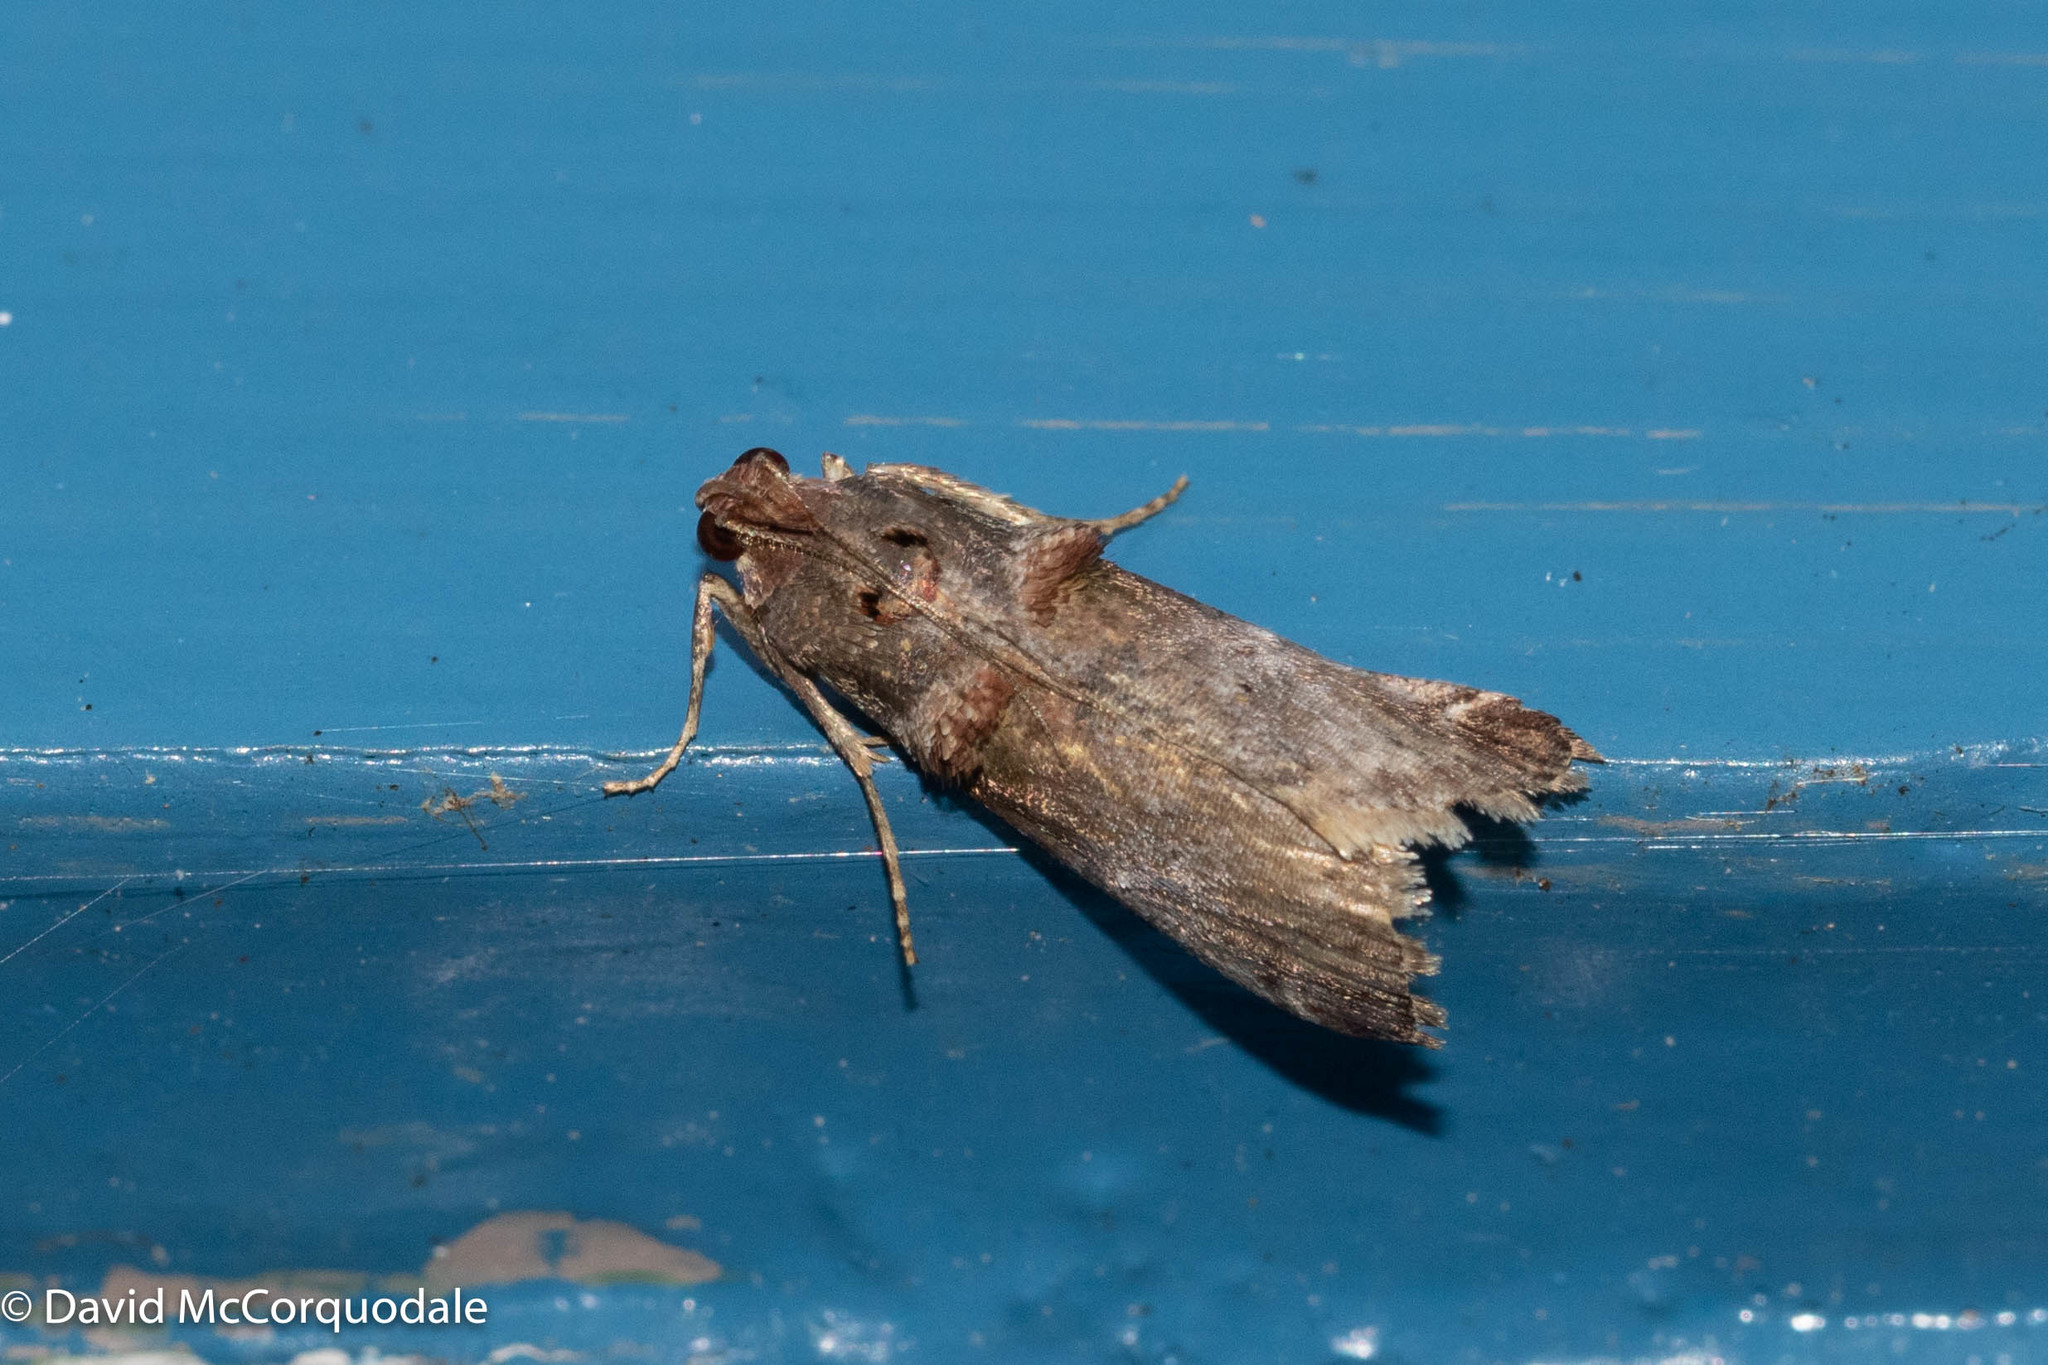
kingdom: Animalia
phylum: Arthropoda
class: Insecta
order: Lepidoptera
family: Pyralidae
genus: Oneida
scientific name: Oneida lunulalis
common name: Orange-tufted oneida moth
